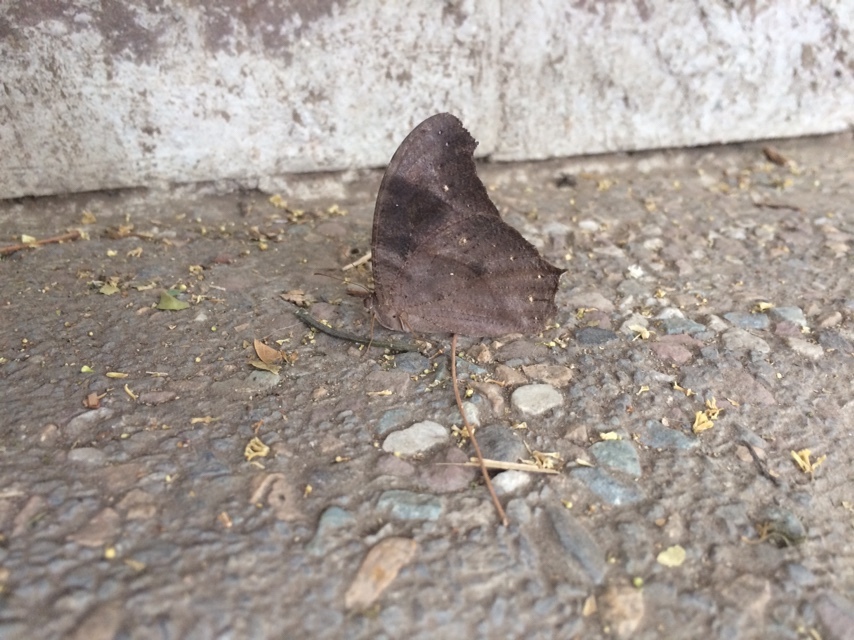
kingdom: Animalia
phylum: Arthropoda
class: Insecta
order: Lepidoptera
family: Nymphalidae
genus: Melanitis
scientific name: Melanitis leda
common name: Twilight brown
